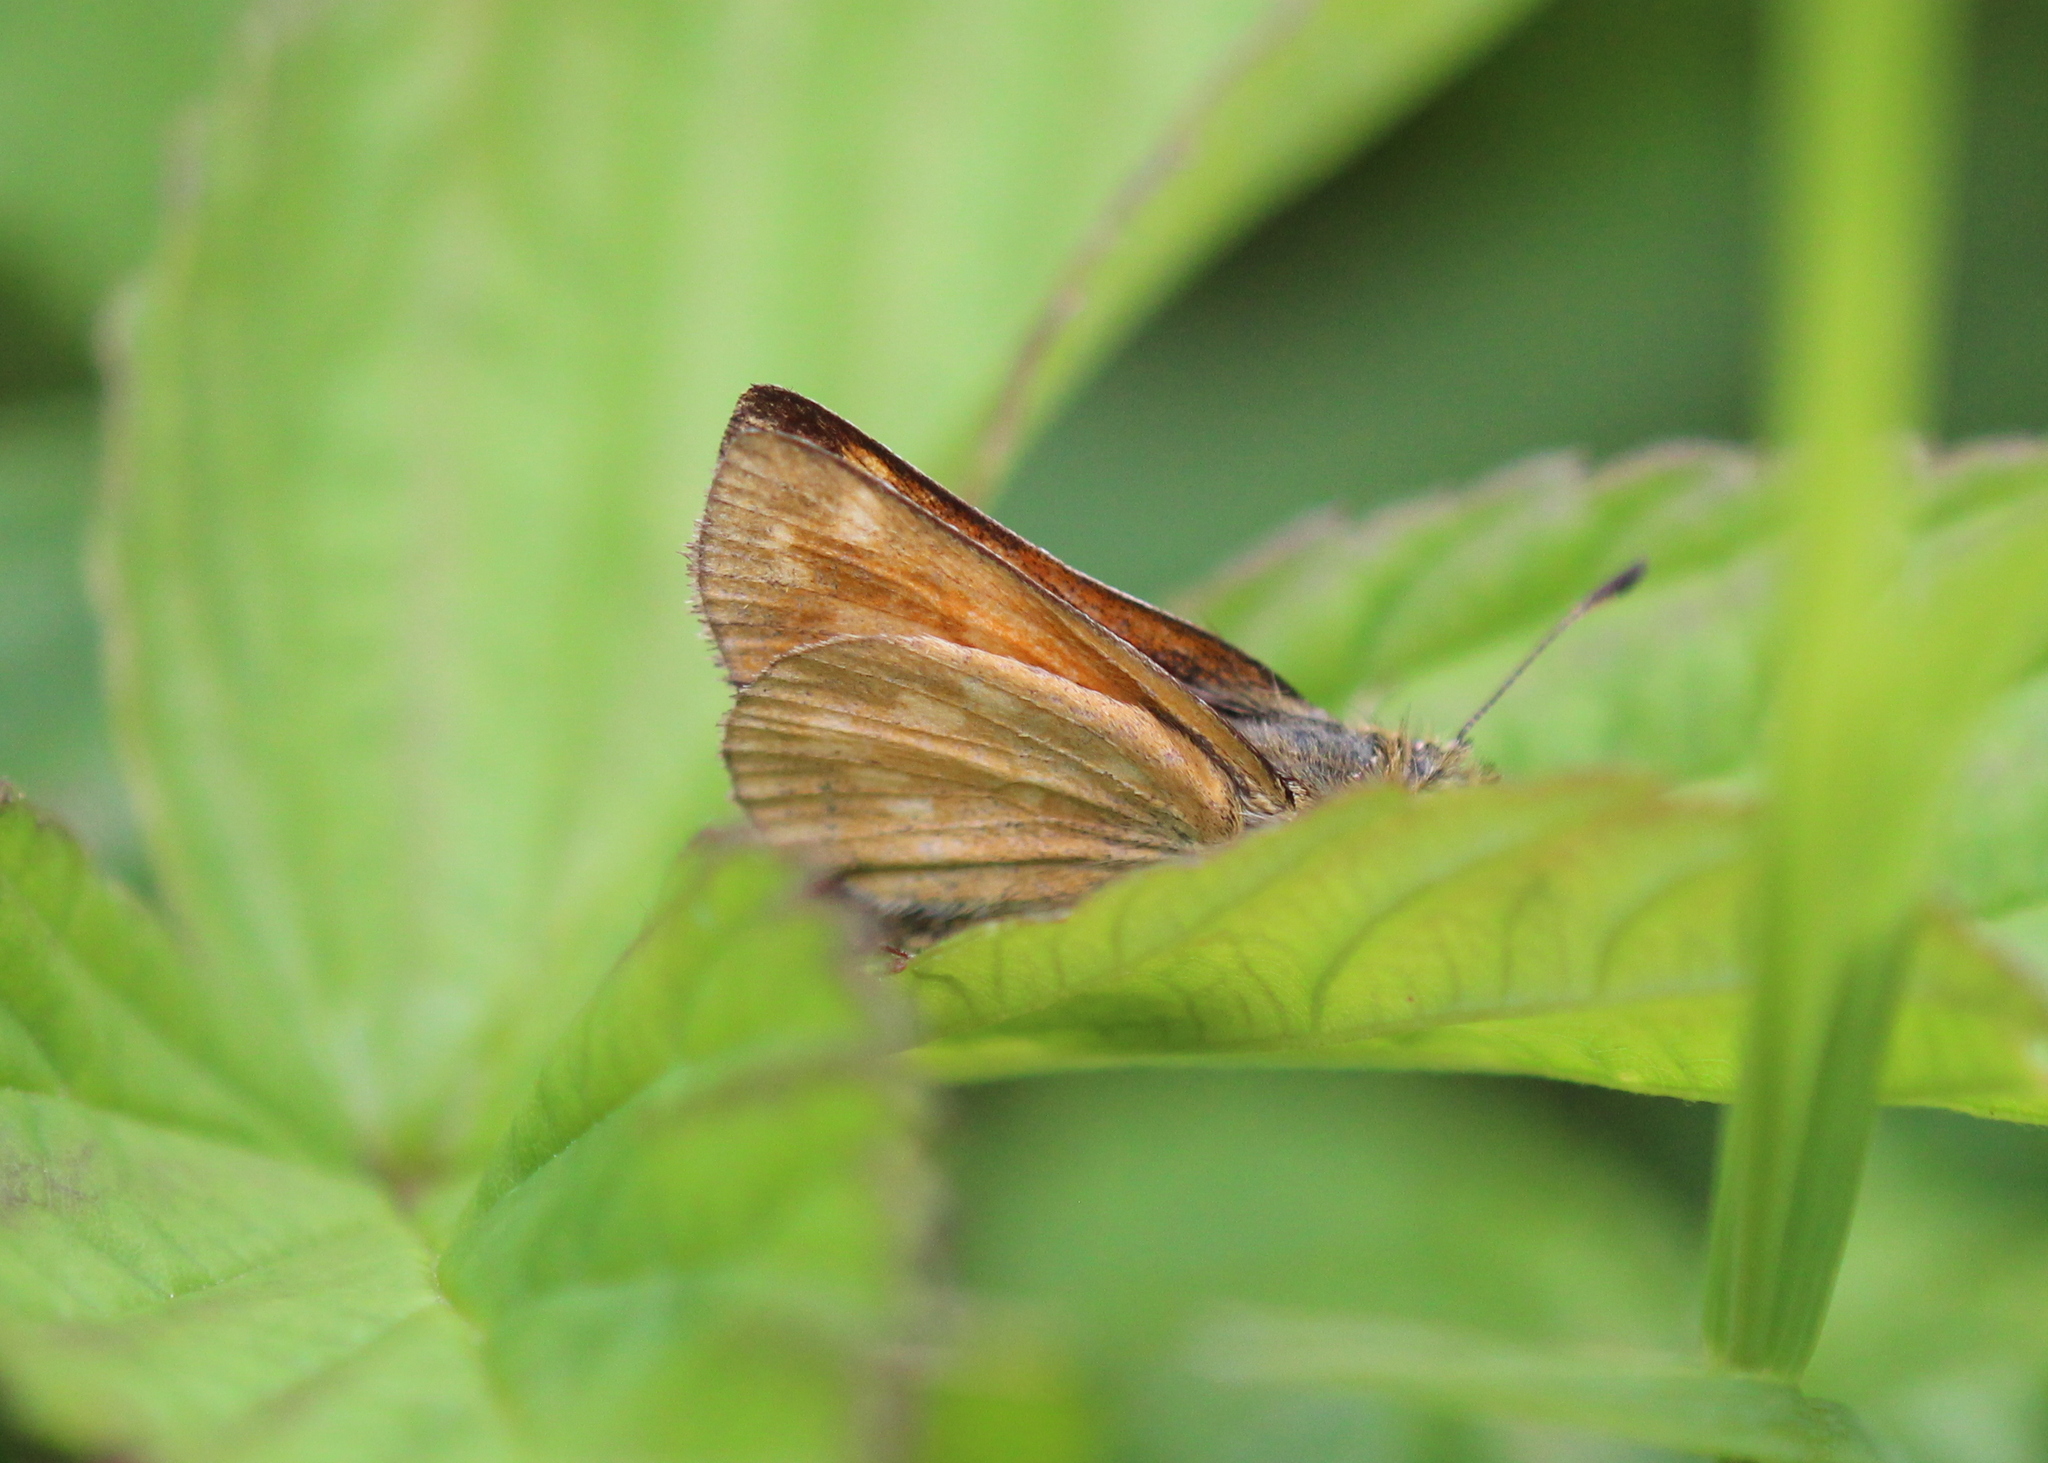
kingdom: Animalia
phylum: Arthropoda
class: Insecta
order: Lepidoptera
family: Hesperiidae
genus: Hesperia
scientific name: Hesperia sassacus
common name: Indian skipper
